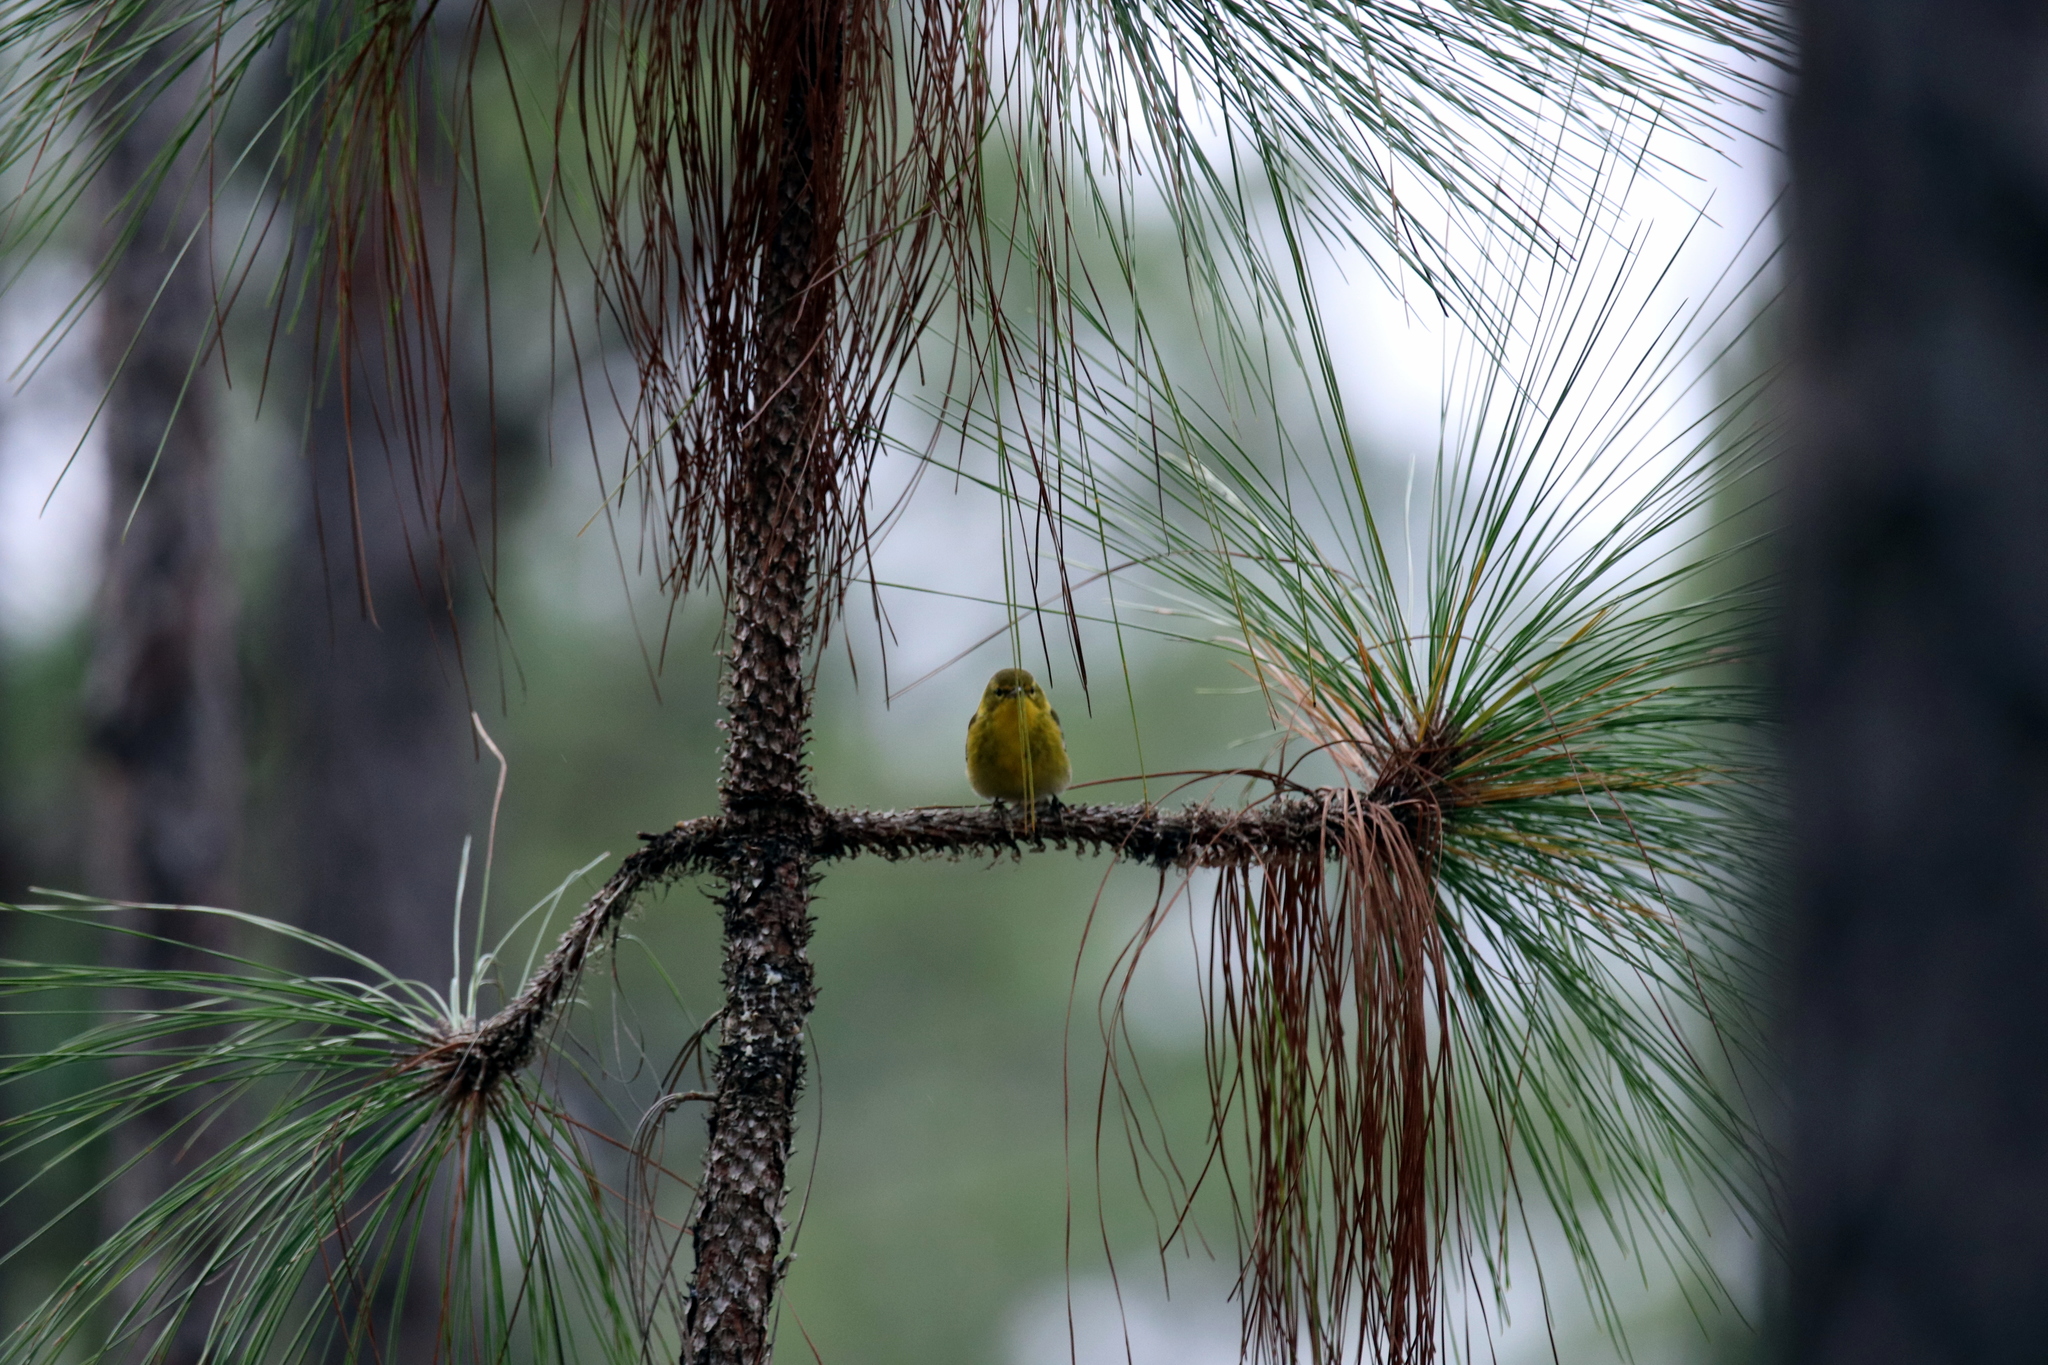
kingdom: Animalia
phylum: Chordata
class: Aves
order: Passeriformes
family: Parulidae
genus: Setophaga
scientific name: Setophaga pinus
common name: Pine warbler
